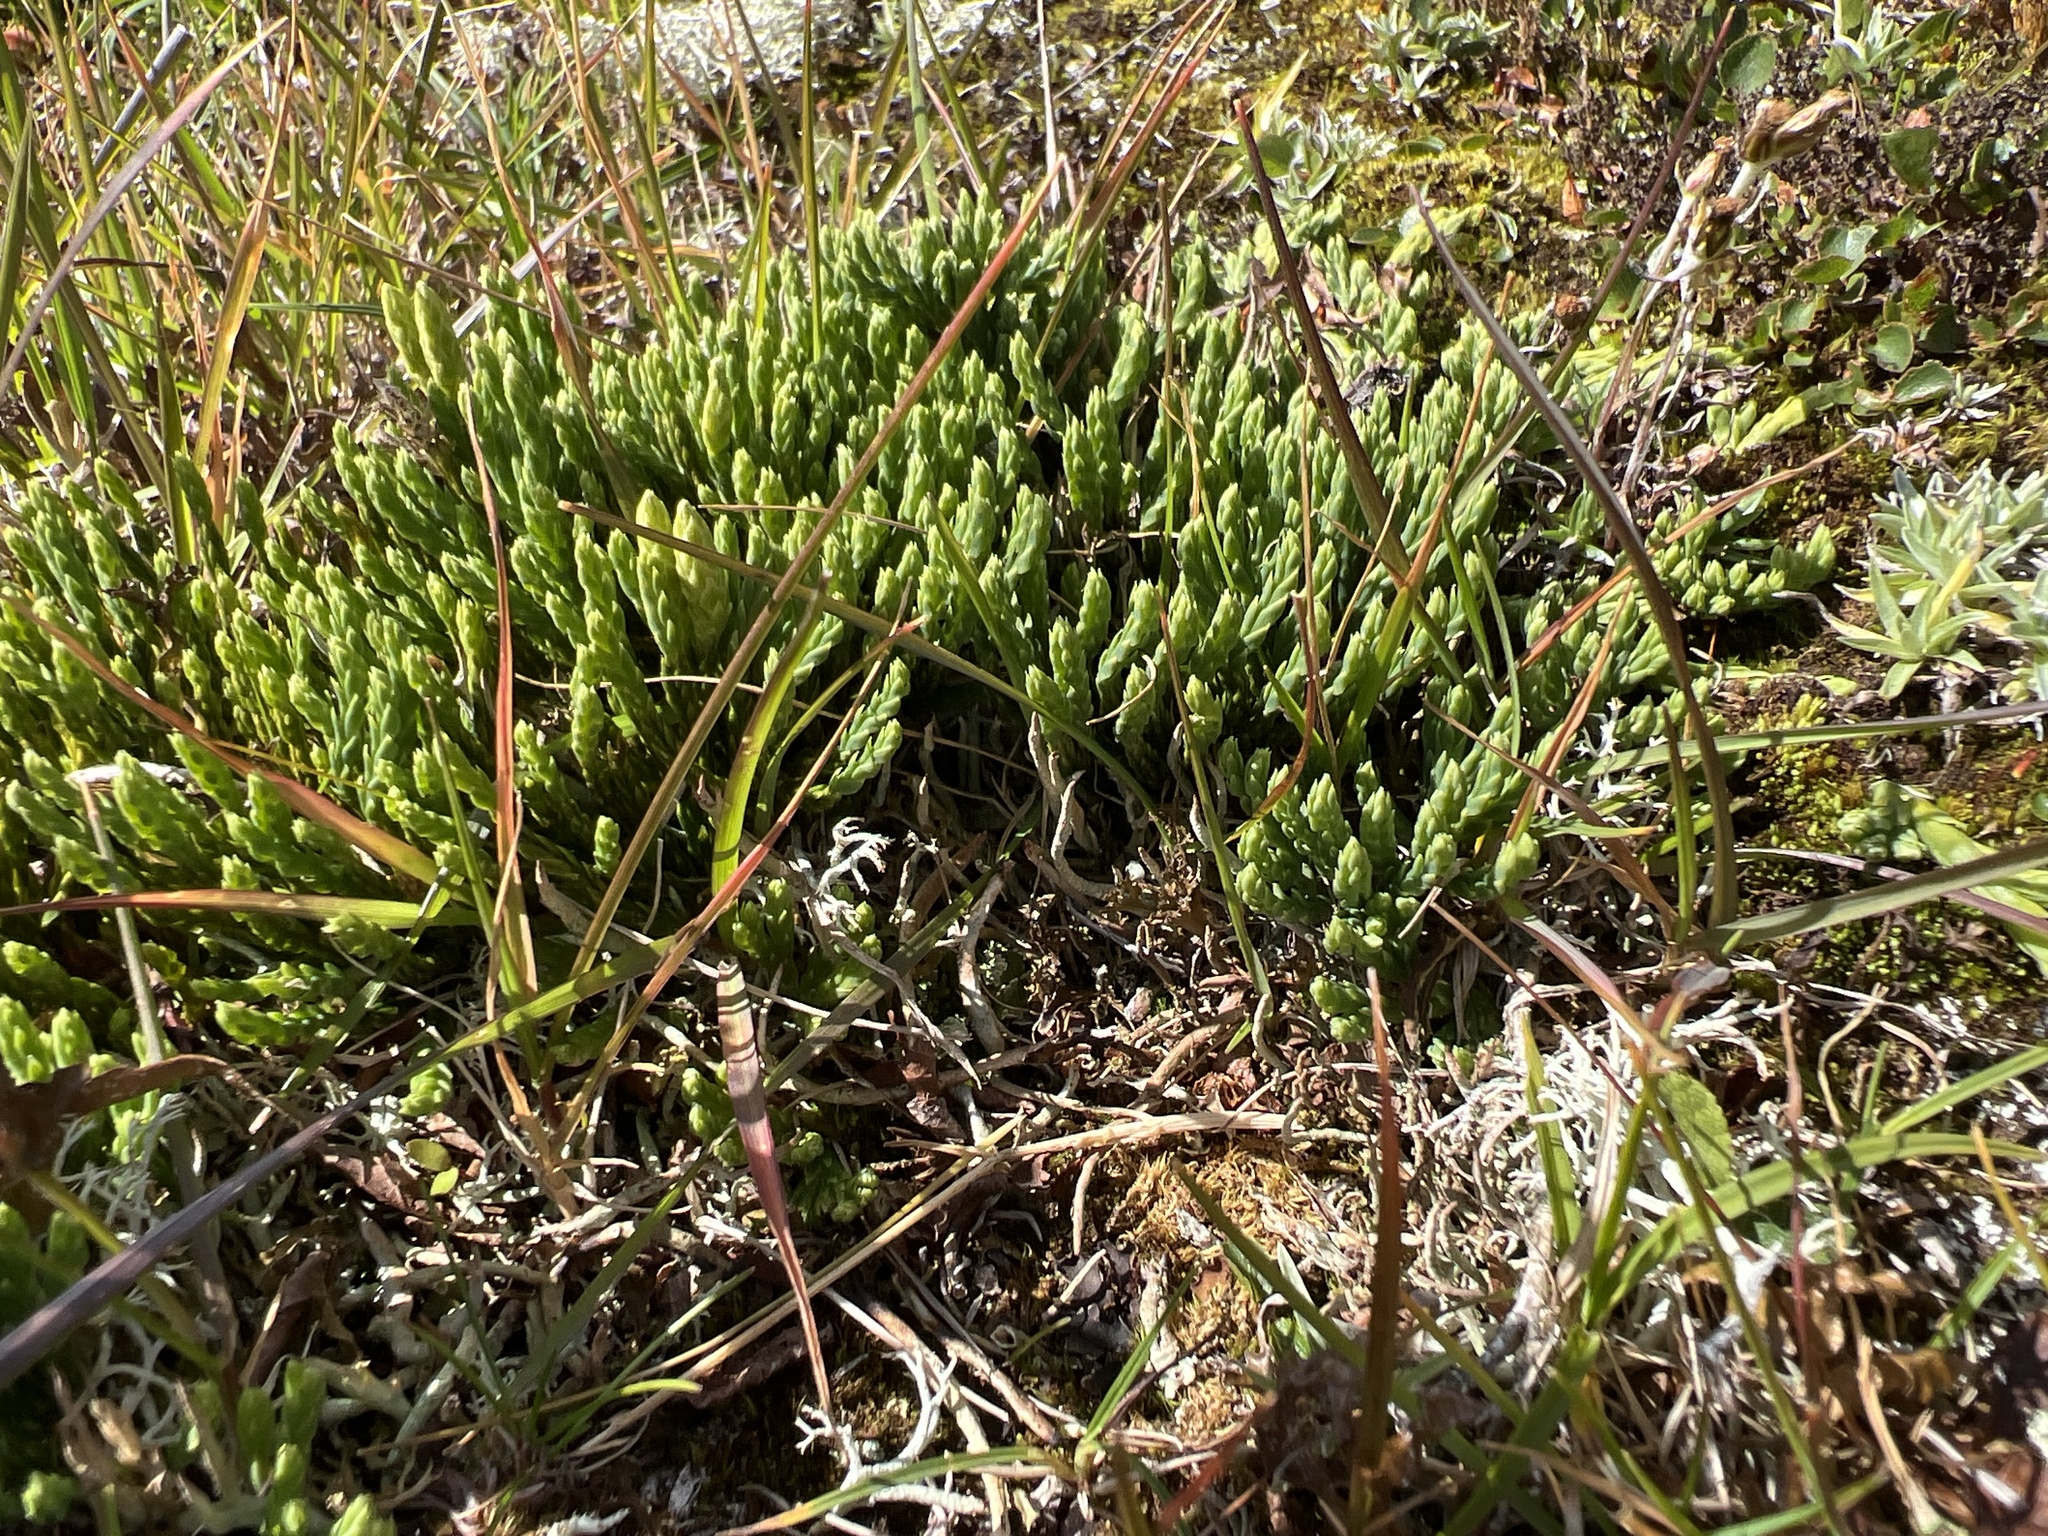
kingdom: Plantae
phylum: Tracheophyta
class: Lycopodiopsida
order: Lycopodiales
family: Lycopodiaceae
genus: Diphasiastrum
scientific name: Diphasiastrum alpinum
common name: Alpine clubmoss
